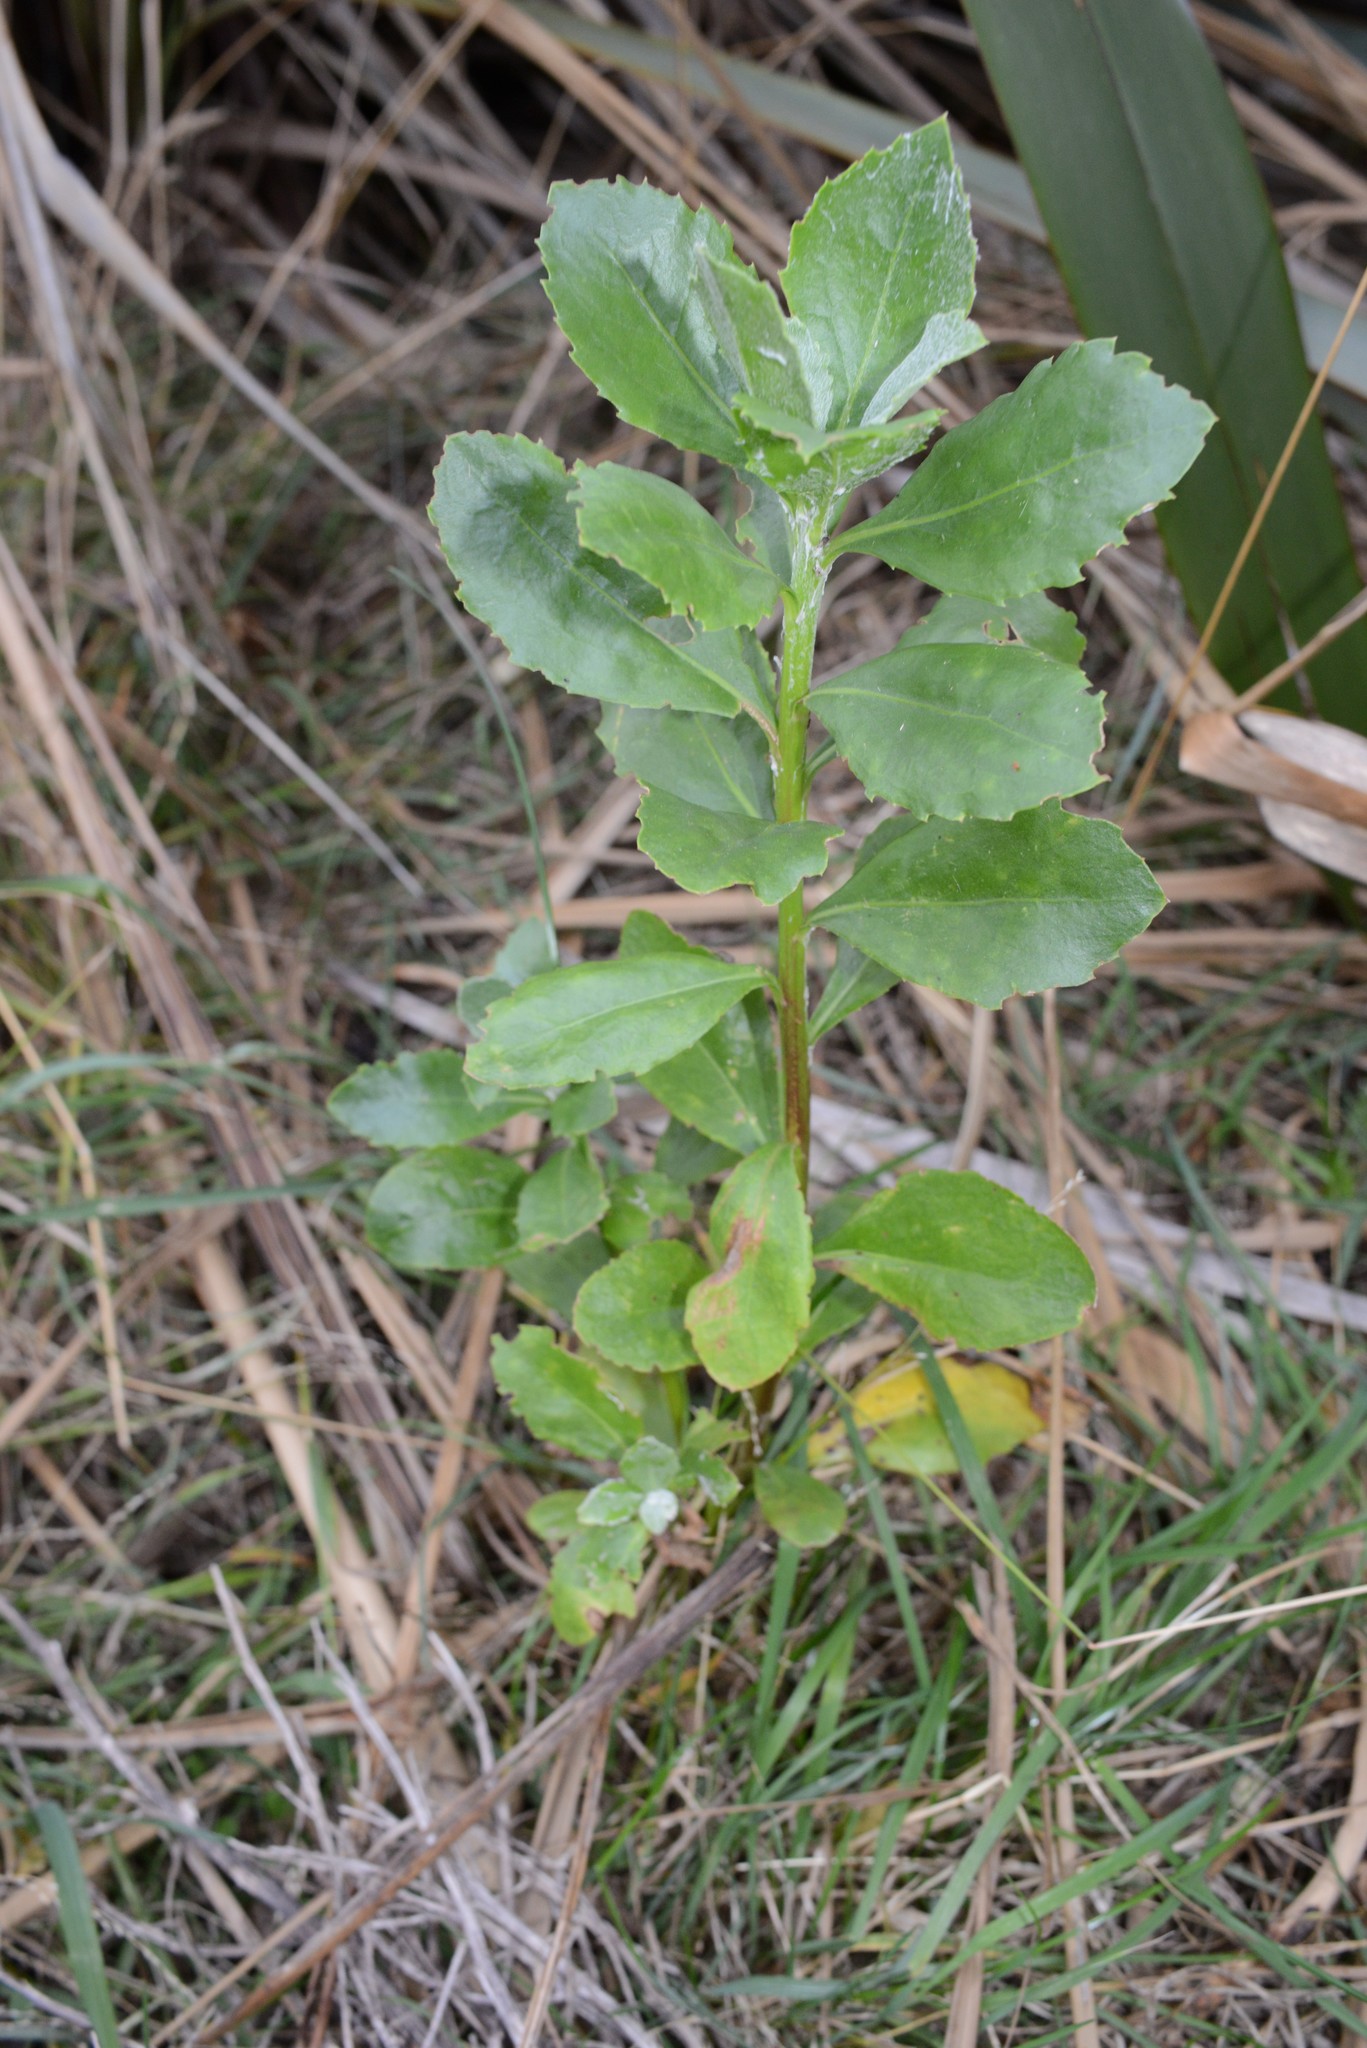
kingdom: Plantae
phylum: Tracheophyta
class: Magnoliopsida
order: Asterales
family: Asteraceae
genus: Osteospermum
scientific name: Osteospermum moniliferum
